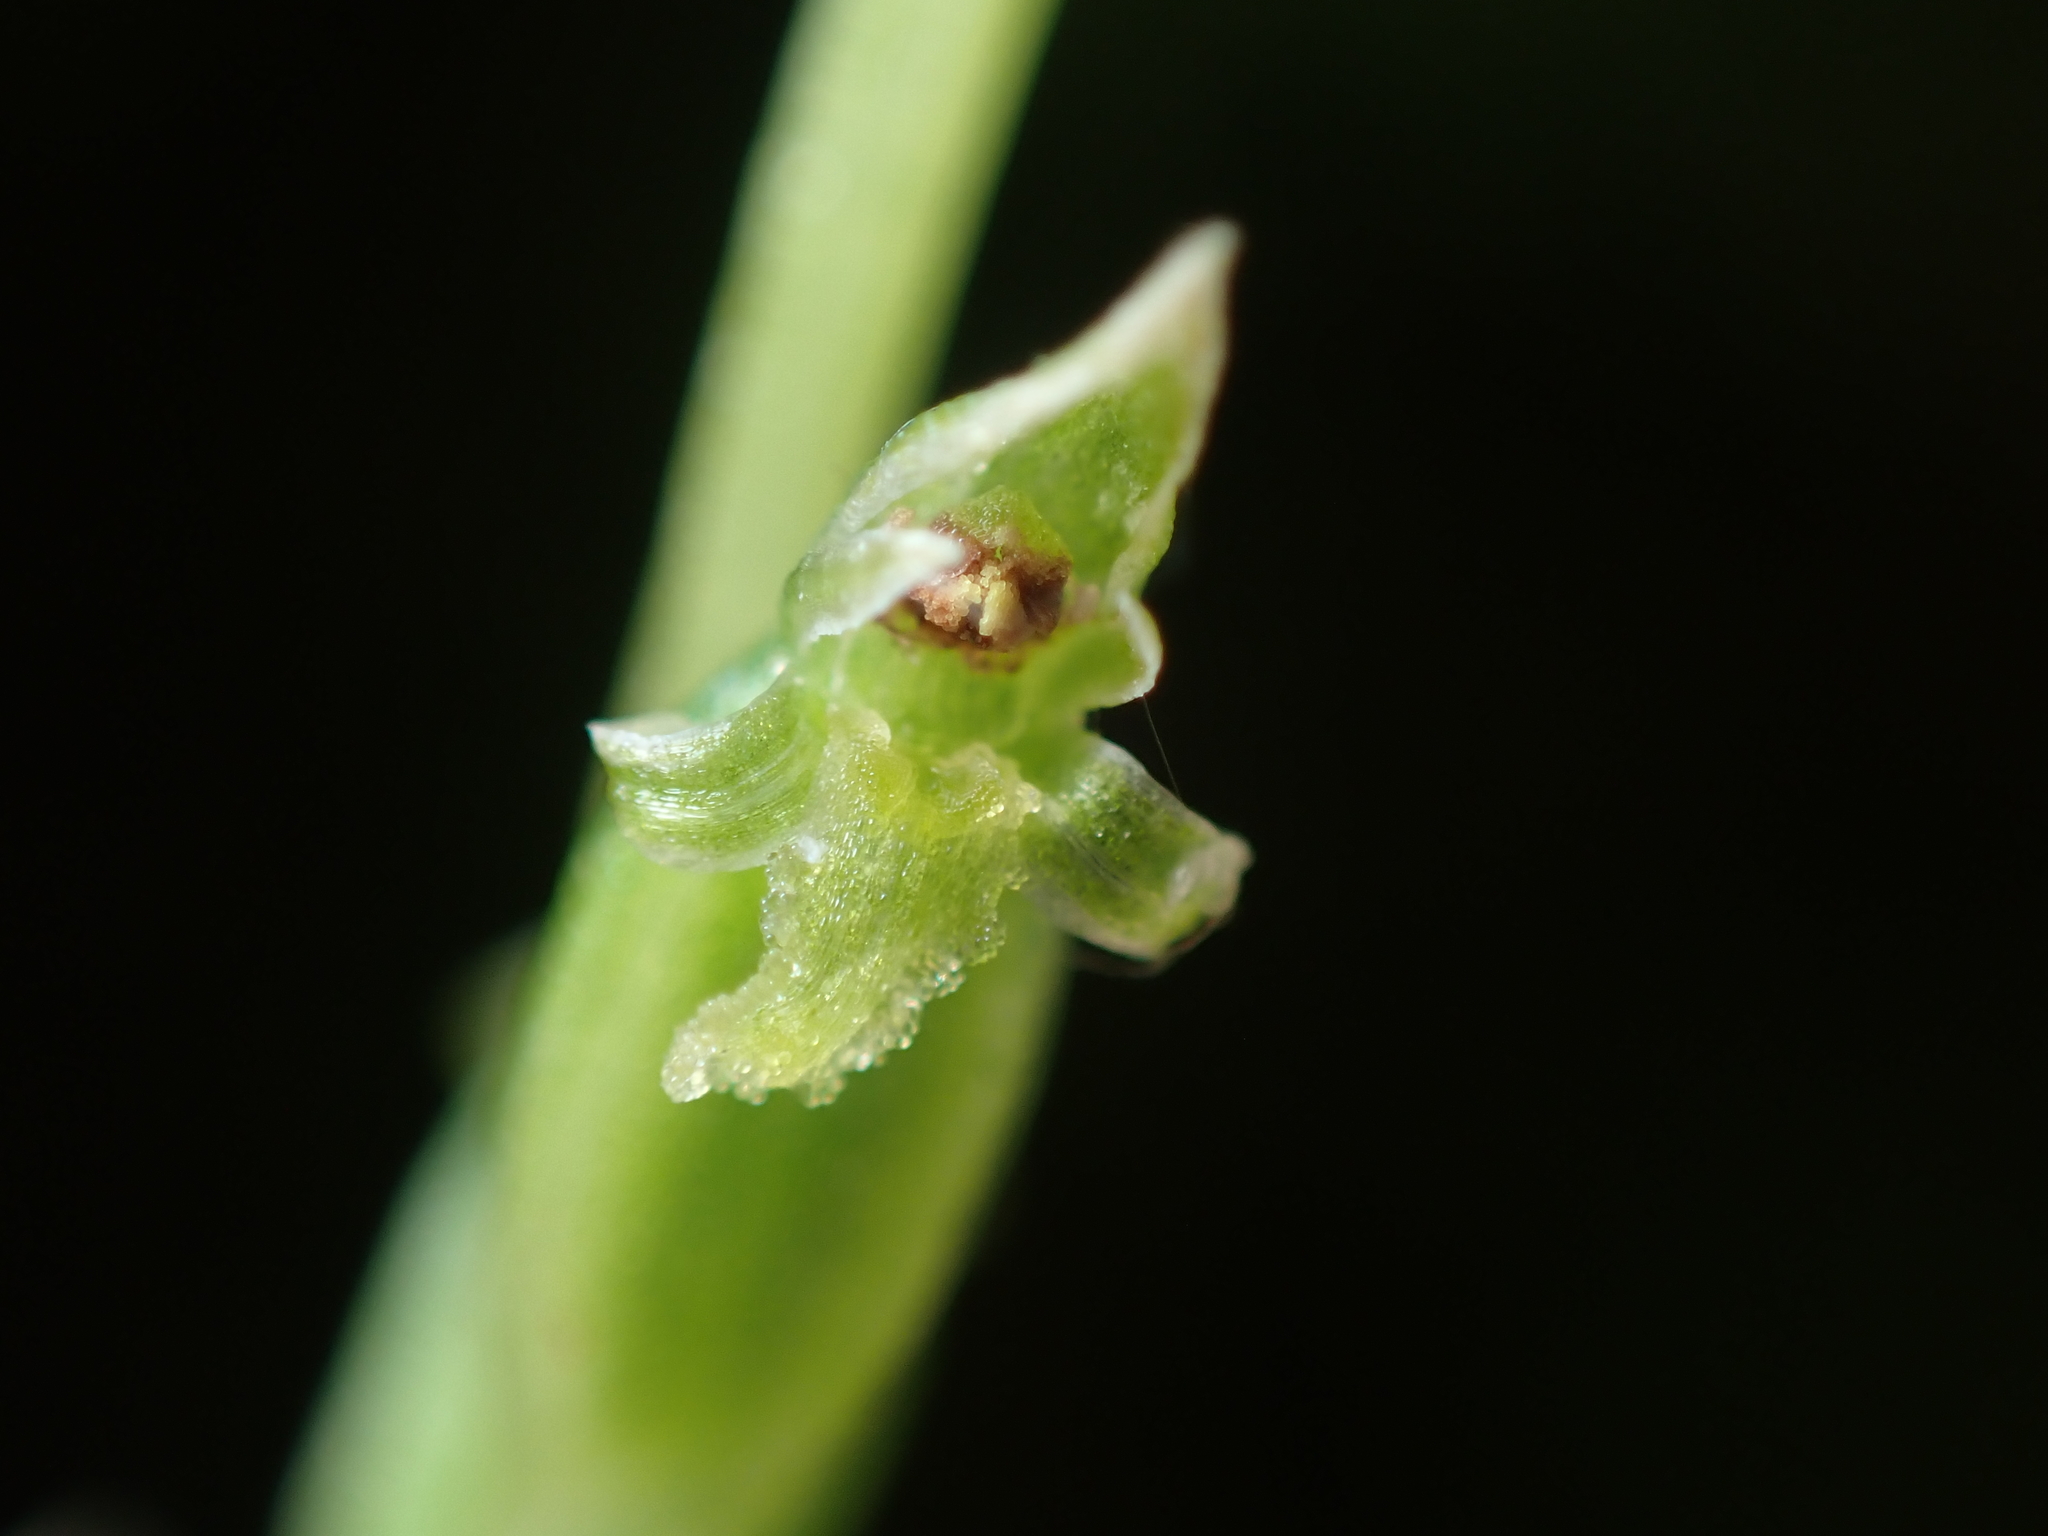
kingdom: Plantae
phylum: Tracheophyta
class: Liliopsida
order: Asparagales
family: Orchidaceae
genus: Microtis
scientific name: Microtis unifolia
